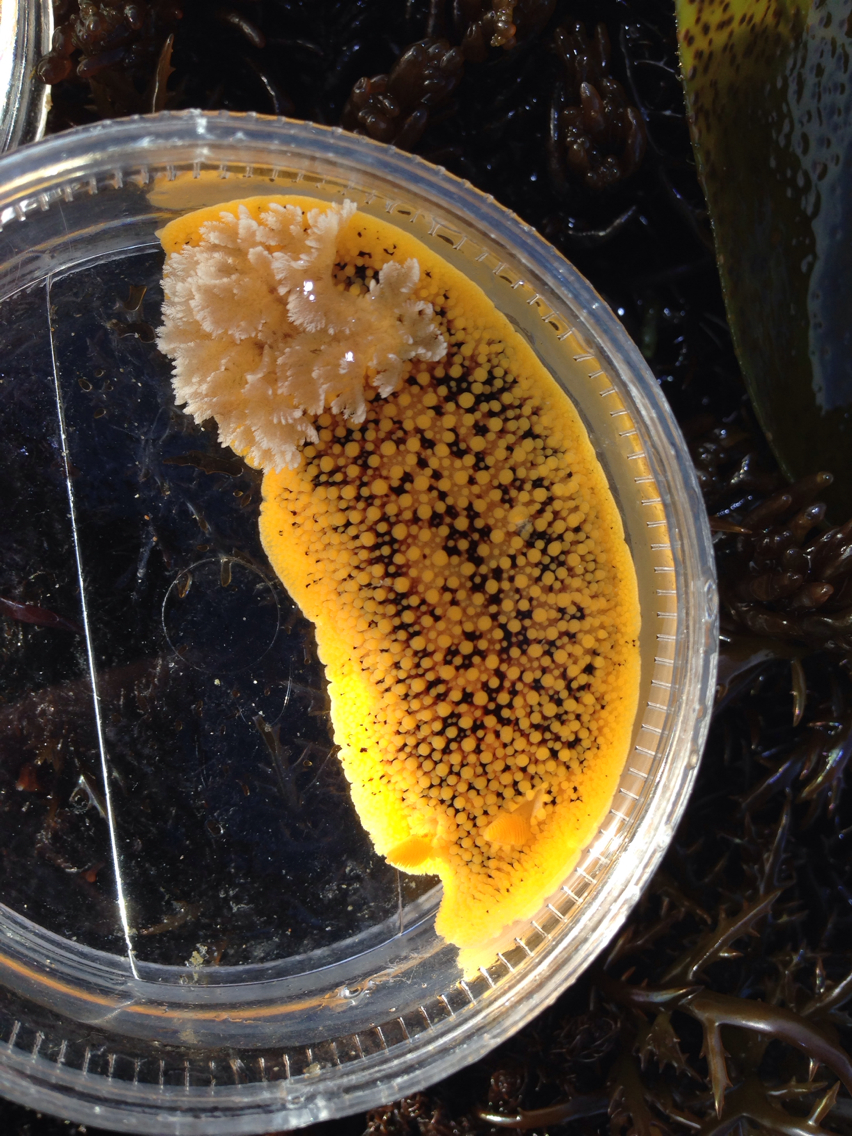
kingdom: Animalia
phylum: Mollusca
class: Gastropoda
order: Nudibranchia
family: Discodorididae
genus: Peltodoris
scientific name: Peltodoris nobilis
